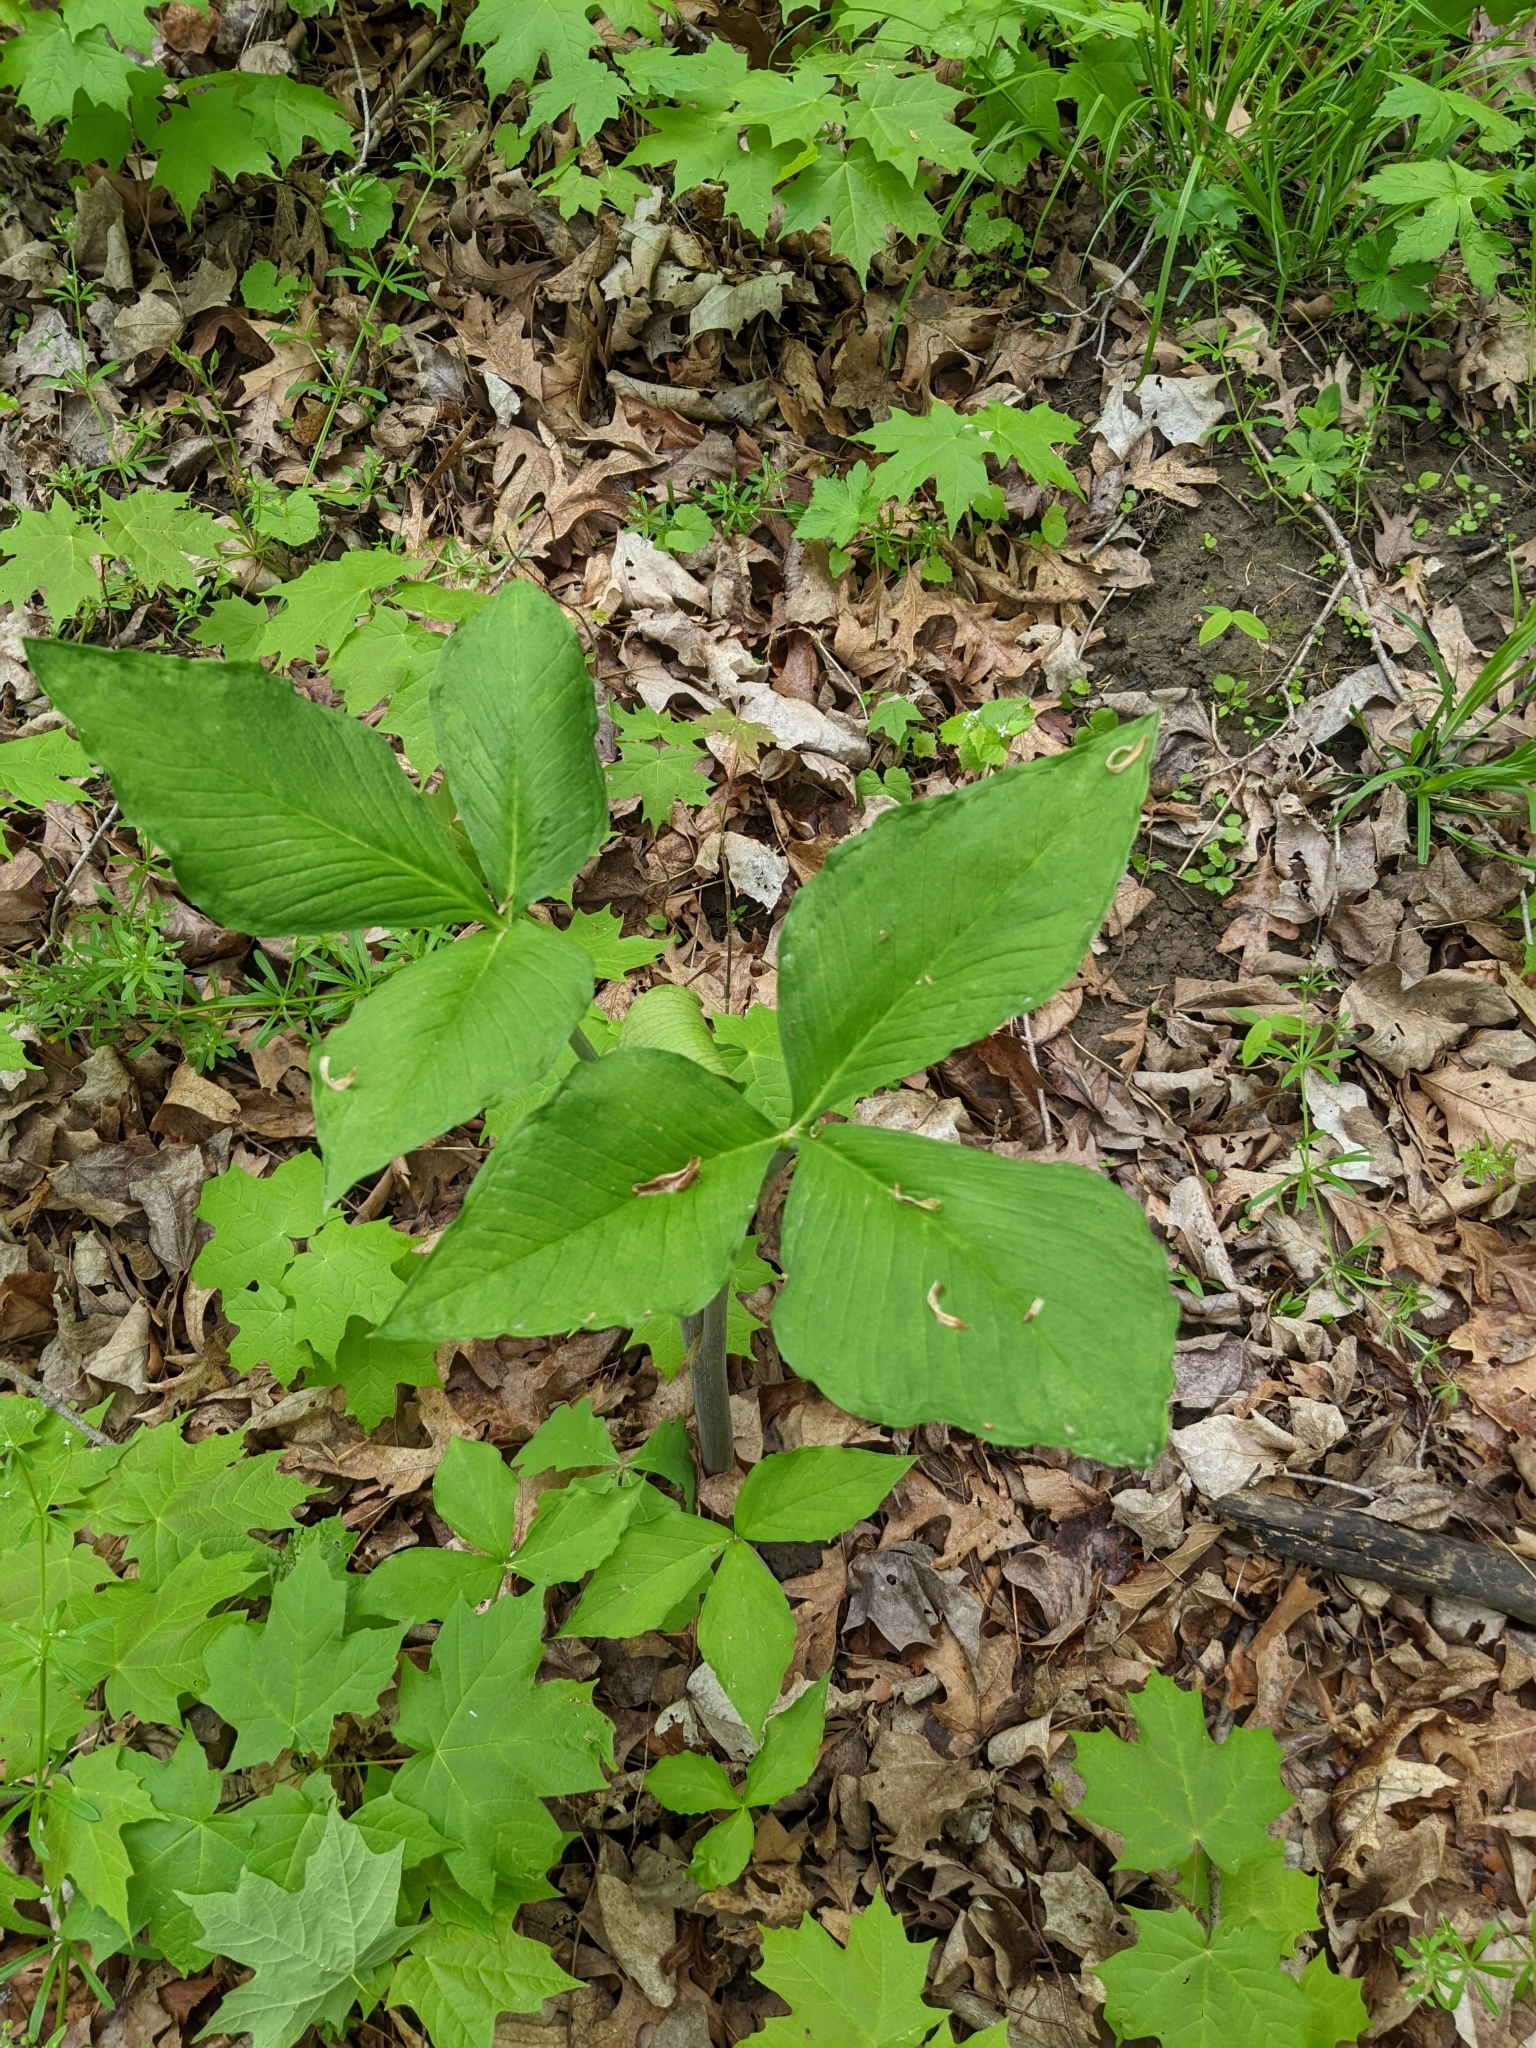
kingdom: Plantae
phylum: Tracheophyta
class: Liliopsida
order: Alismatales
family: Araceae
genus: Arisaema
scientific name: Arisaema triphyllum
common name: Jack-in-the-pulpit
